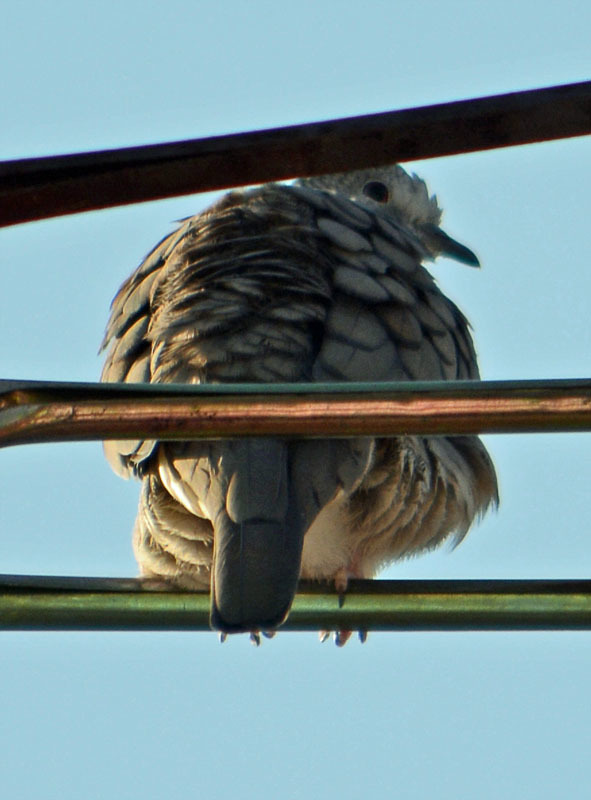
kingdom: Animalia
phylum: Chordata
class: Aves
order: Columbiformes
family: Columbidae
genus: Columbina
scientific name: Columbina inca
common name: Inca dove
